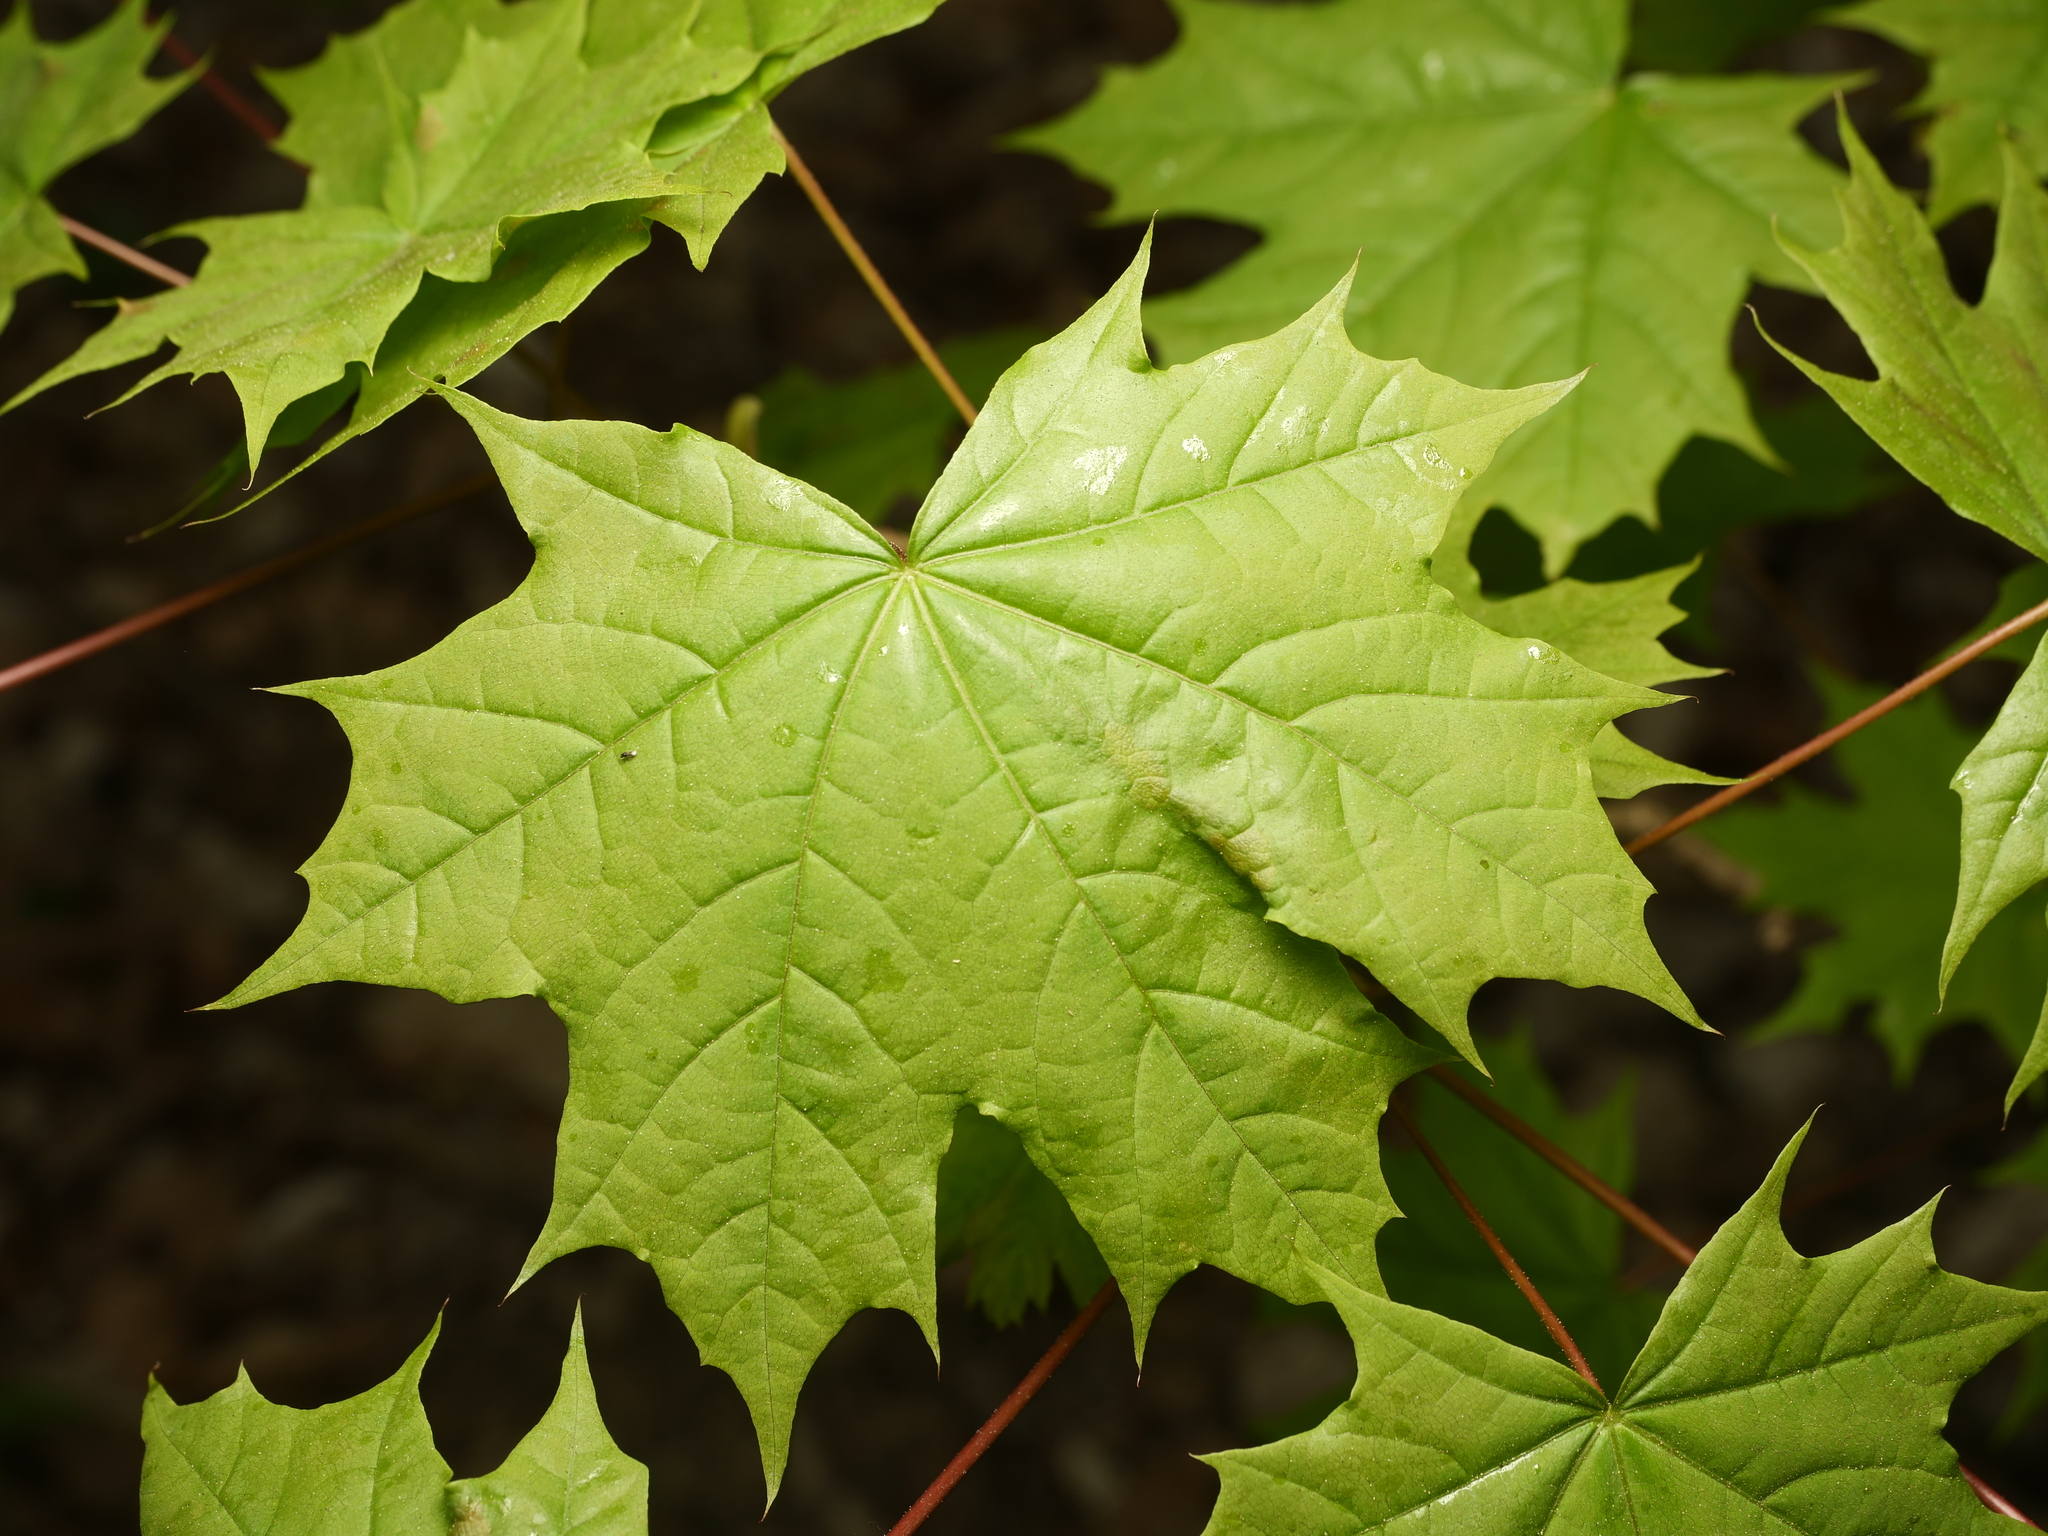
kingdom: Plantae
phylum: Tracheophyta
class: Magnoliopsida
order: Sapindales
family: Sapindaceae
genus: Acer
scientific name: Acer platanoides
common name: Norway maple
